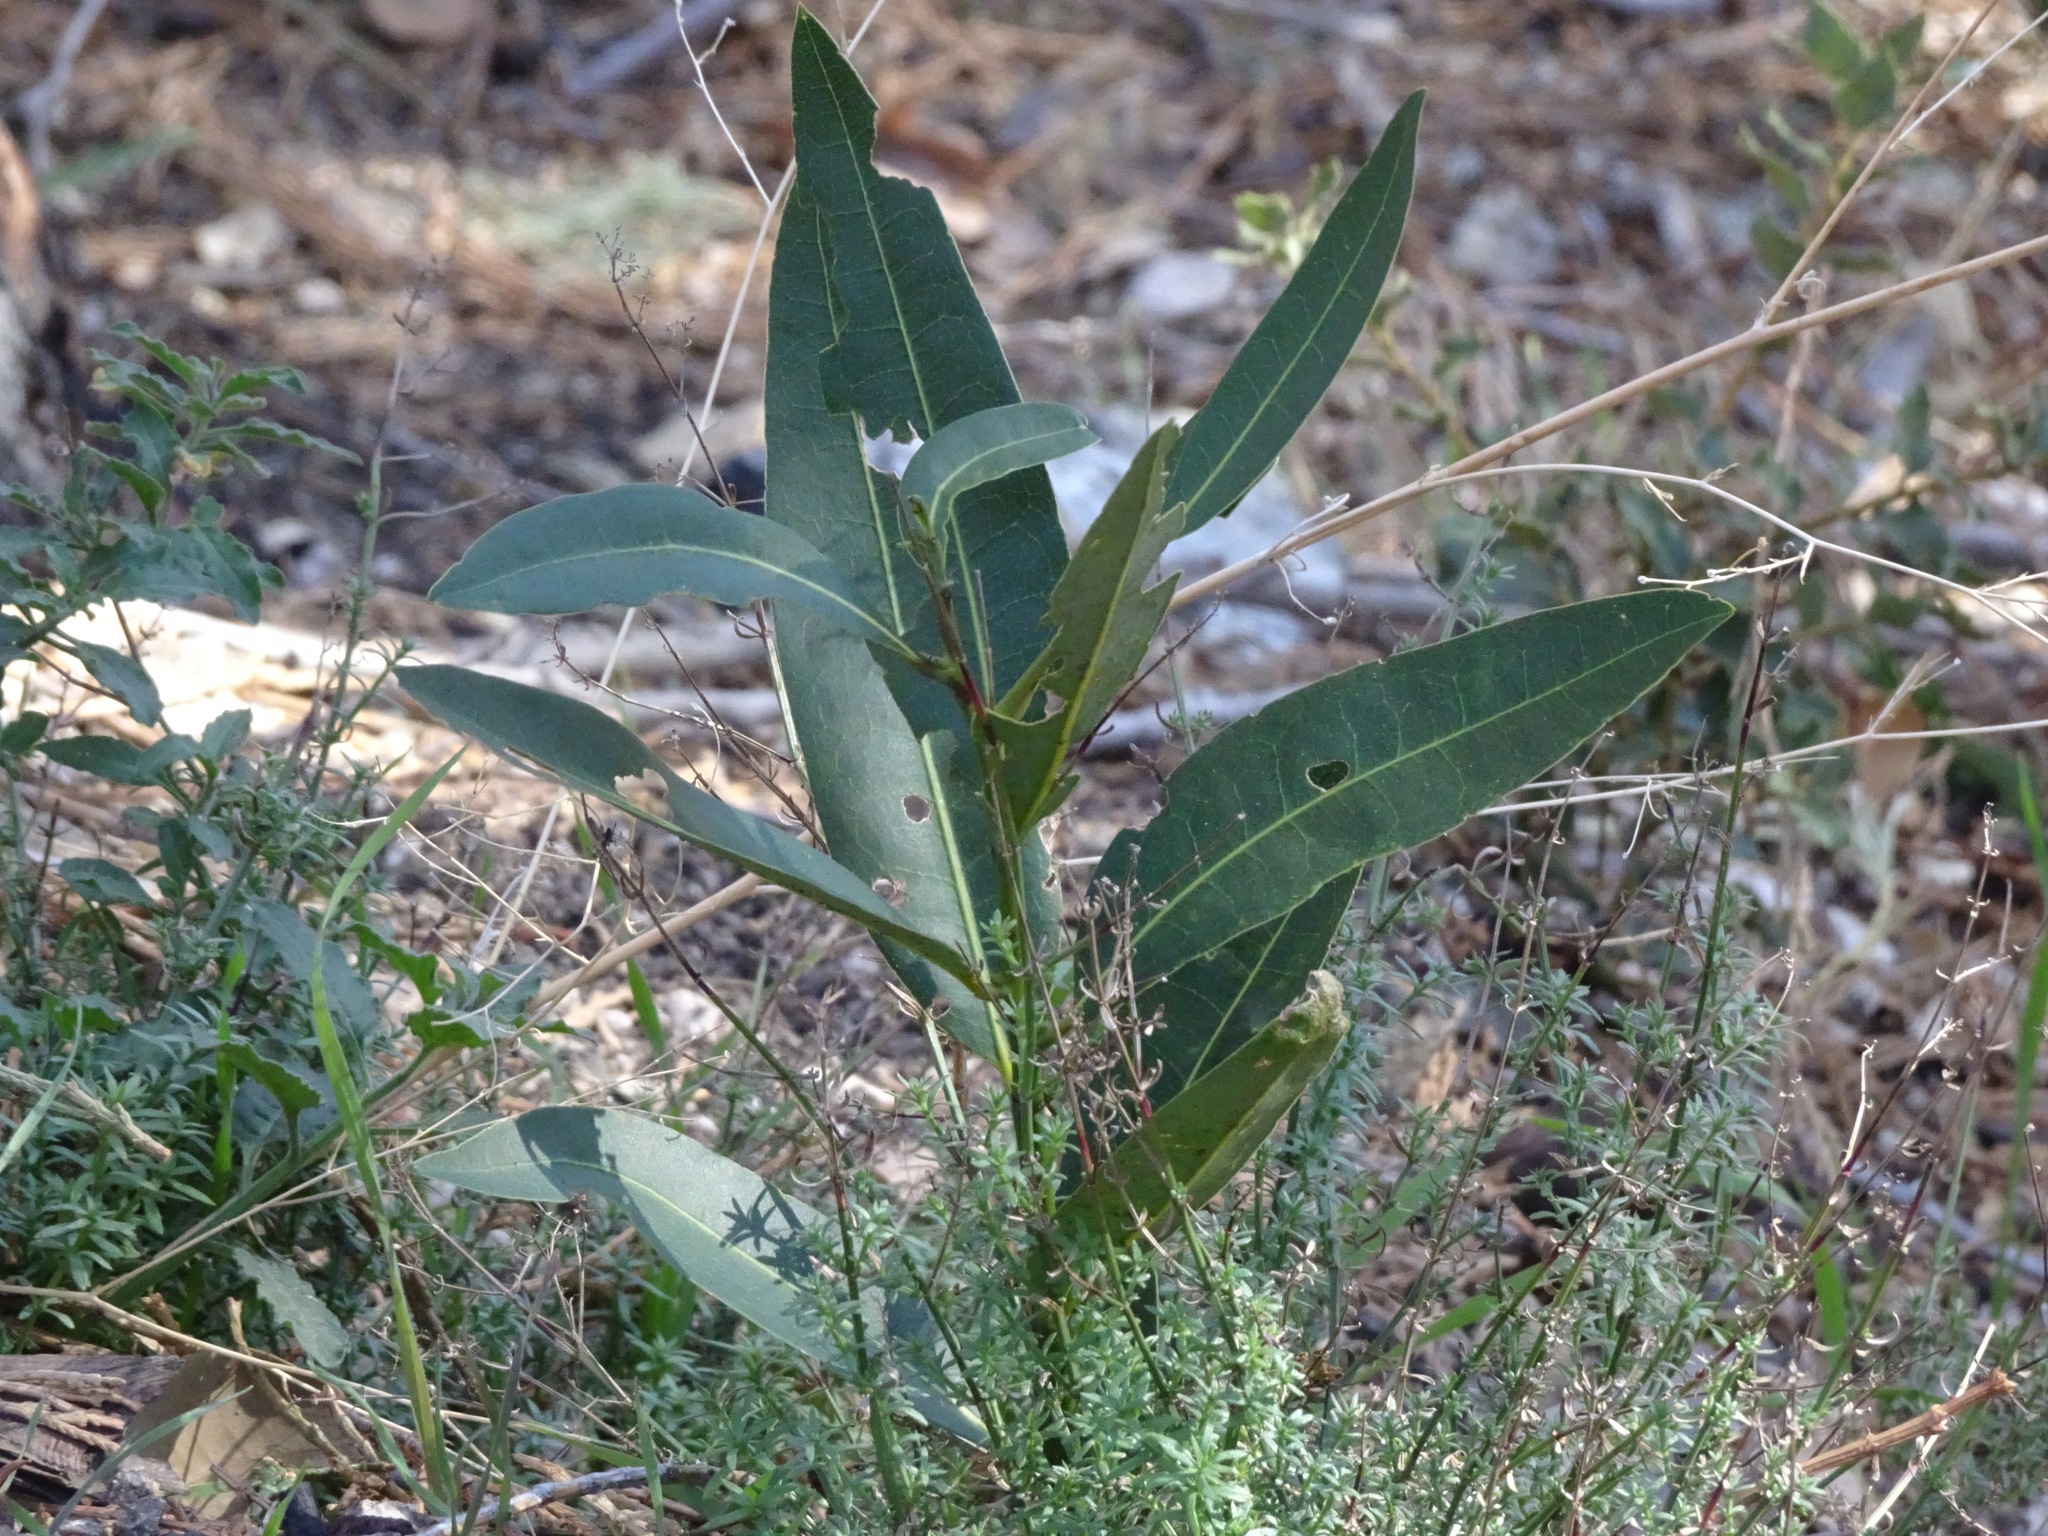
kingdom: Plantae
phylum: Tracheophyta
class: Magnoliopsida
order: Laurales
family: Lauraceae
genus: Umbellularia
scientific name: Umbellularia californica
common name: California bay
